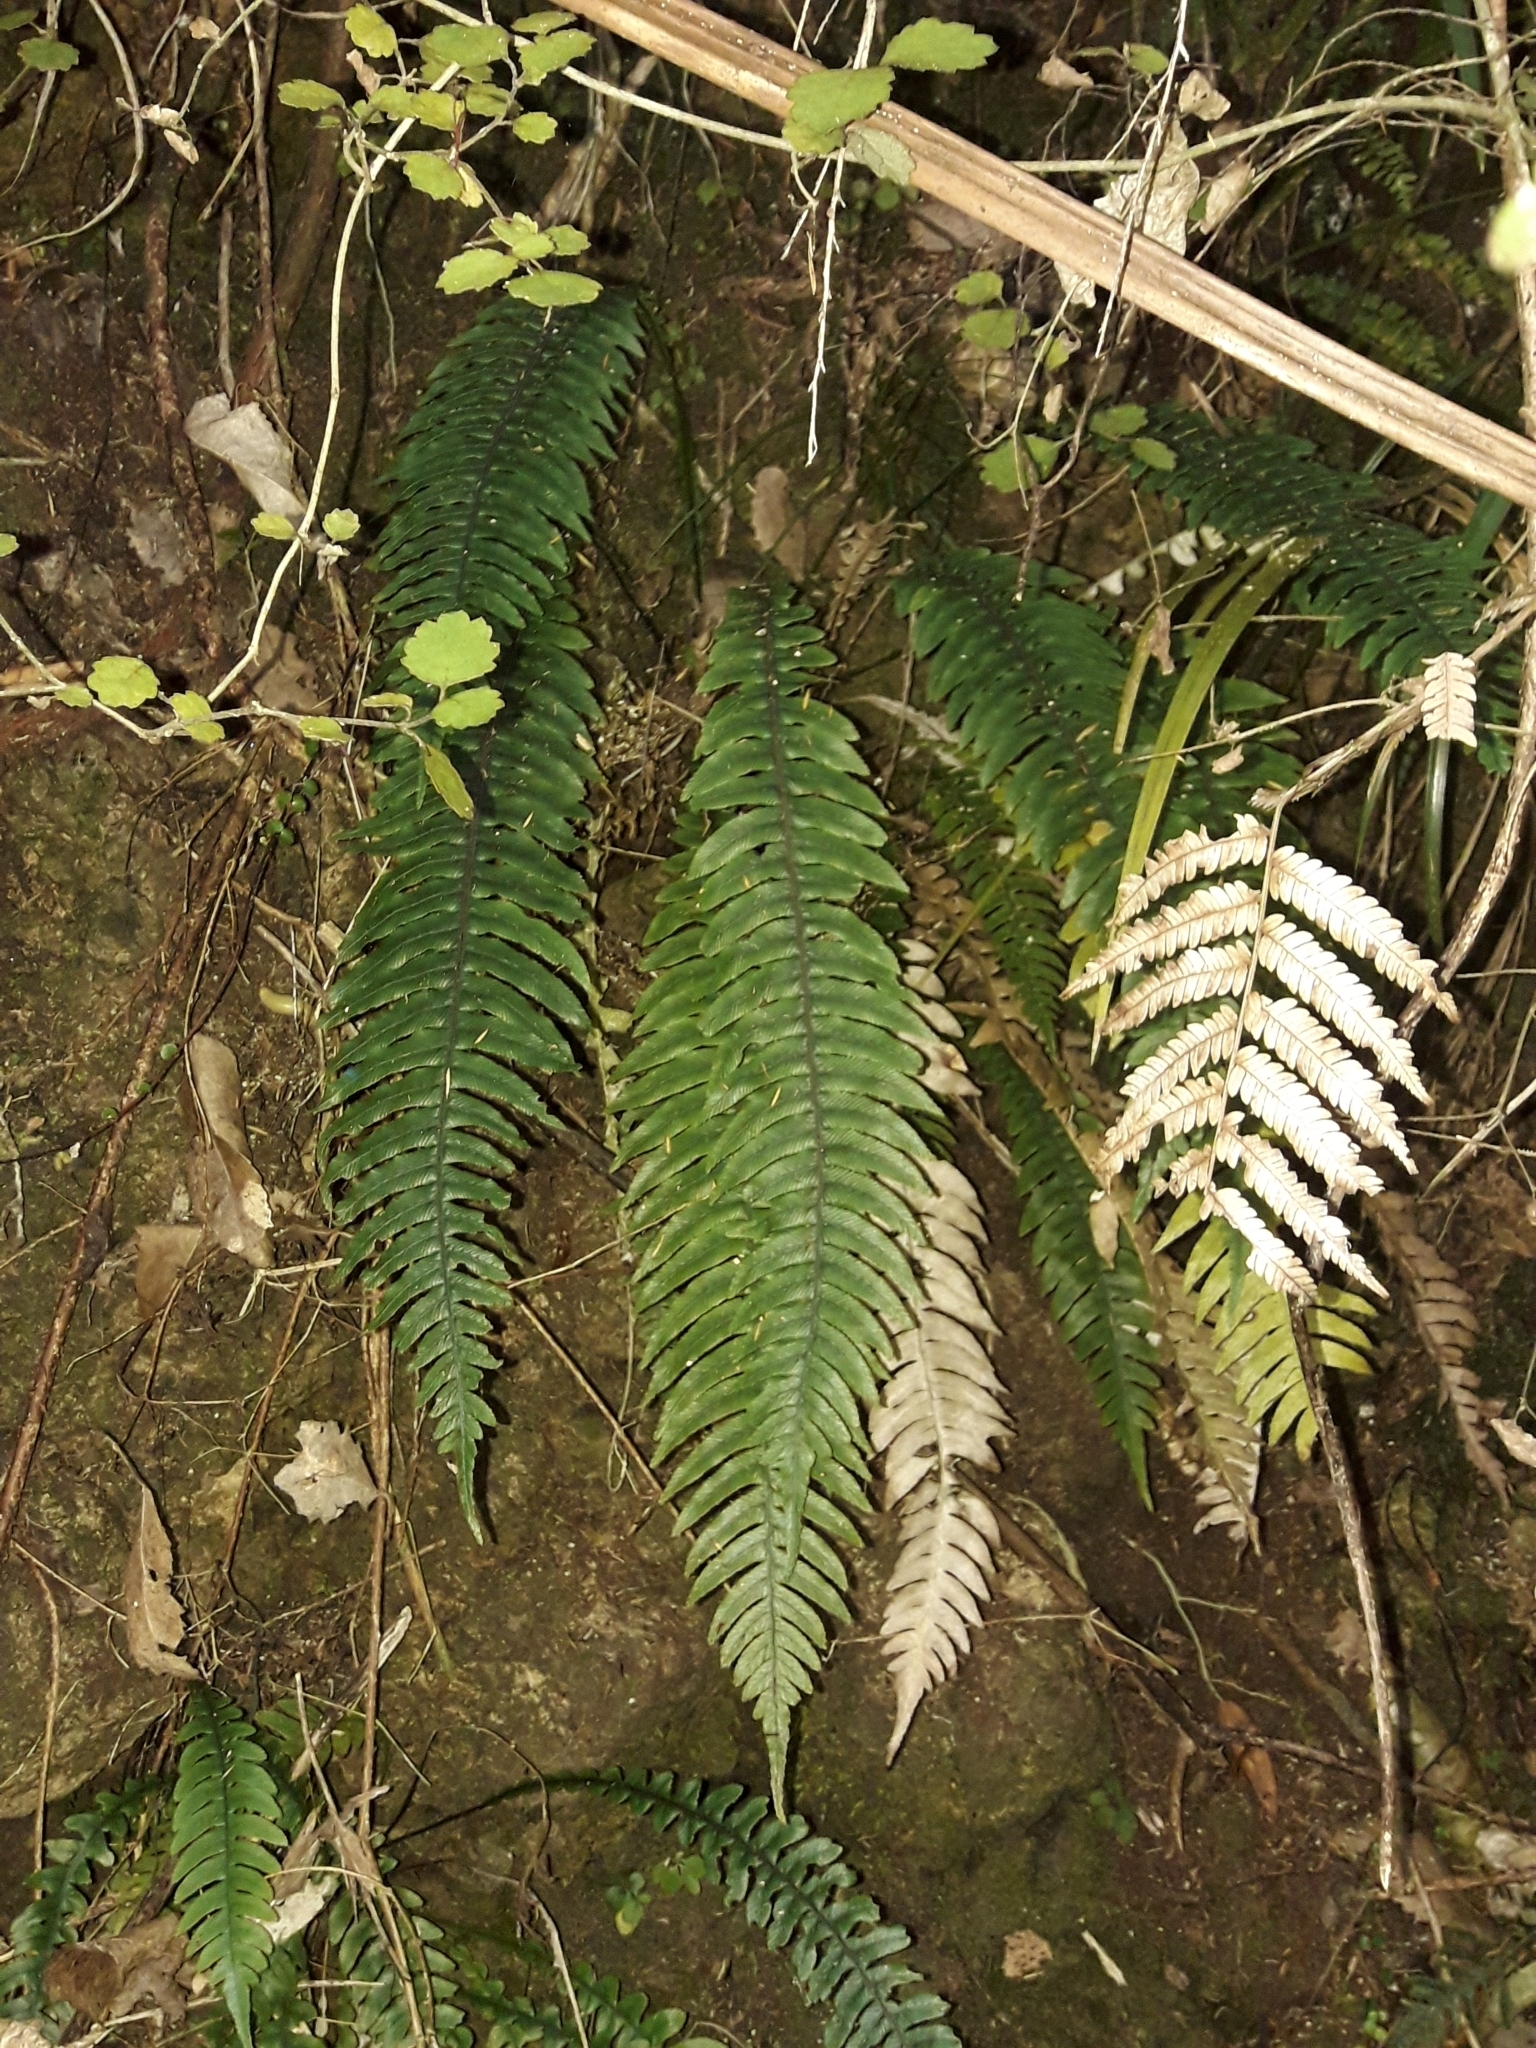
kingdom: Plantae
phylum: Tracheophyta
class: Polypodiopsida
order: Polypodiales
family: Blechnaceae
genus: Austroblechnum
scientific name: Austroblechnum lanceolatum
